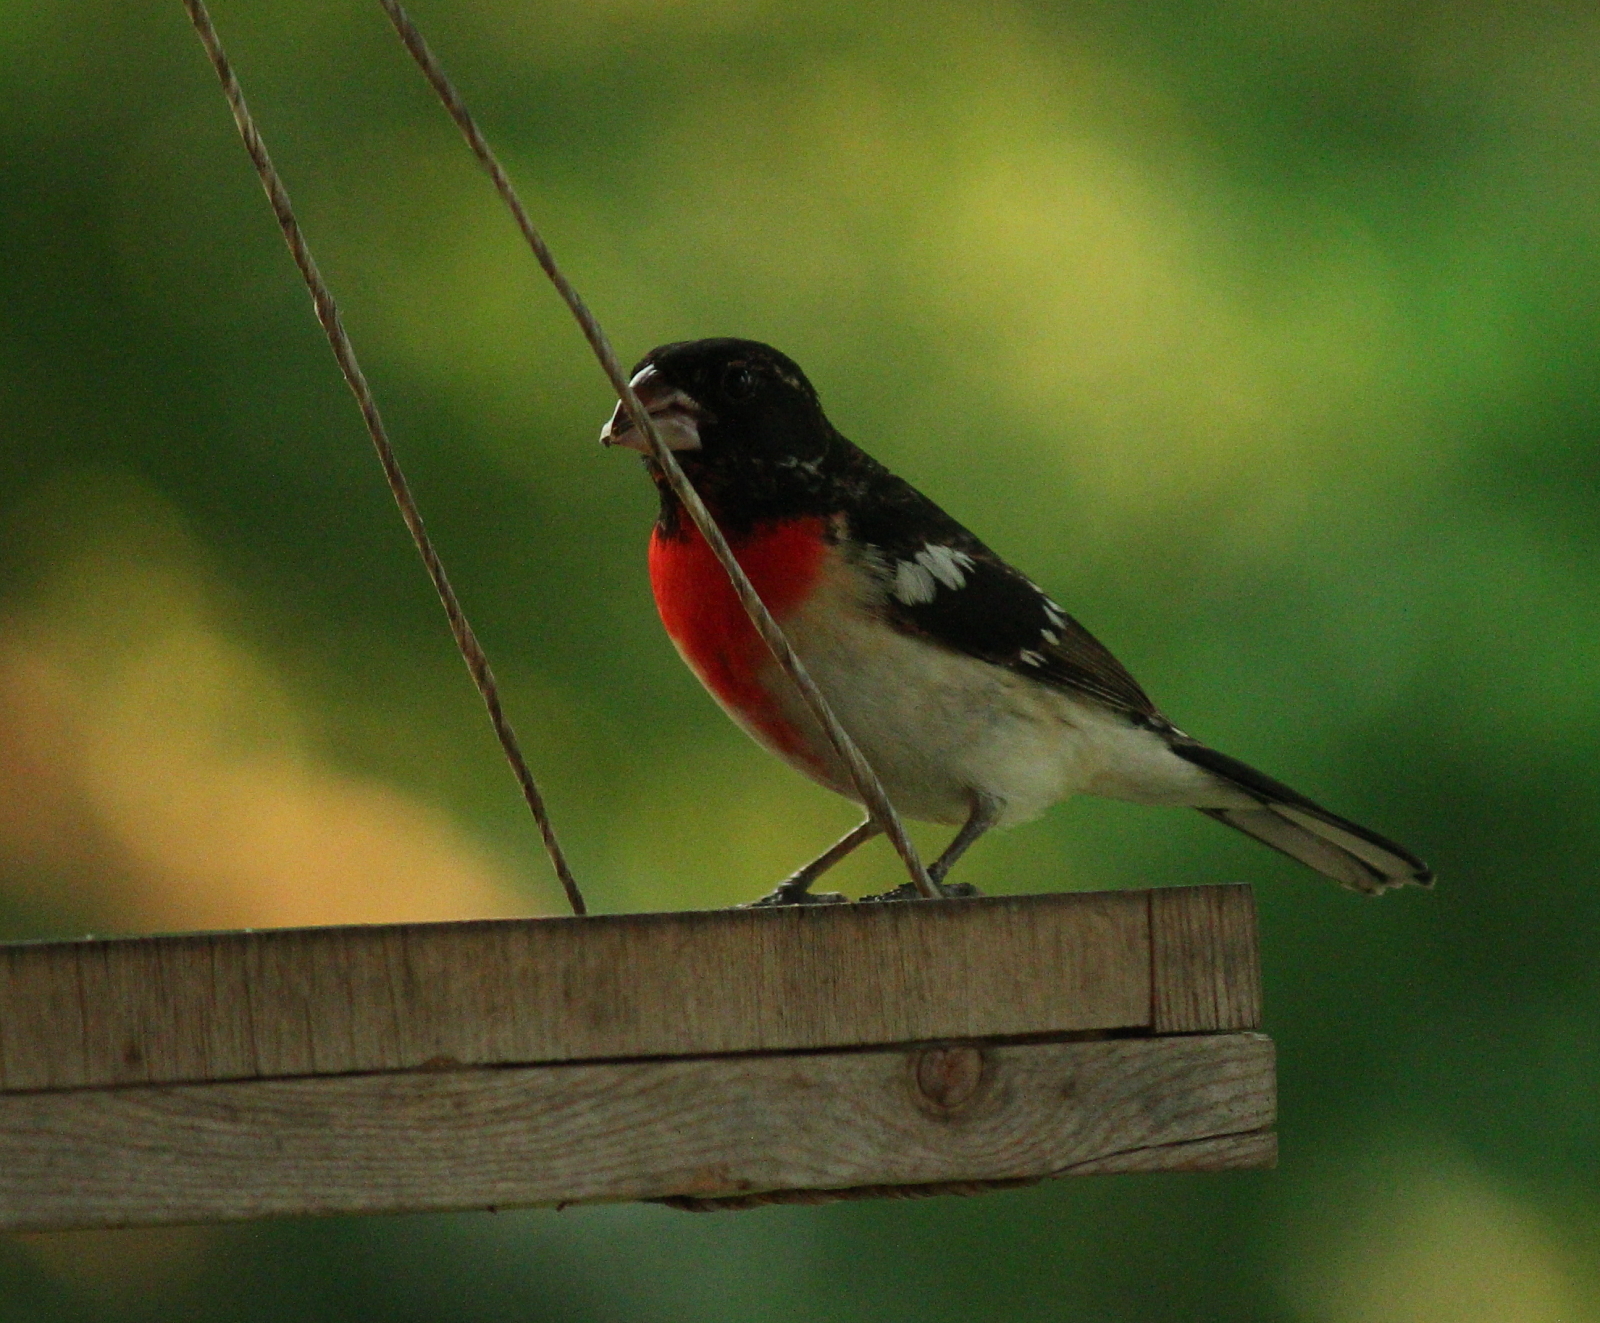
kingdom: Animalia
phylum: Chordata
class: Aves
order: Passeriformes
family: Cardinalidae
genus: Pheucticus
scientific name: Pheucticus ludovicianus
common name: Rose-breasted grosbeak
